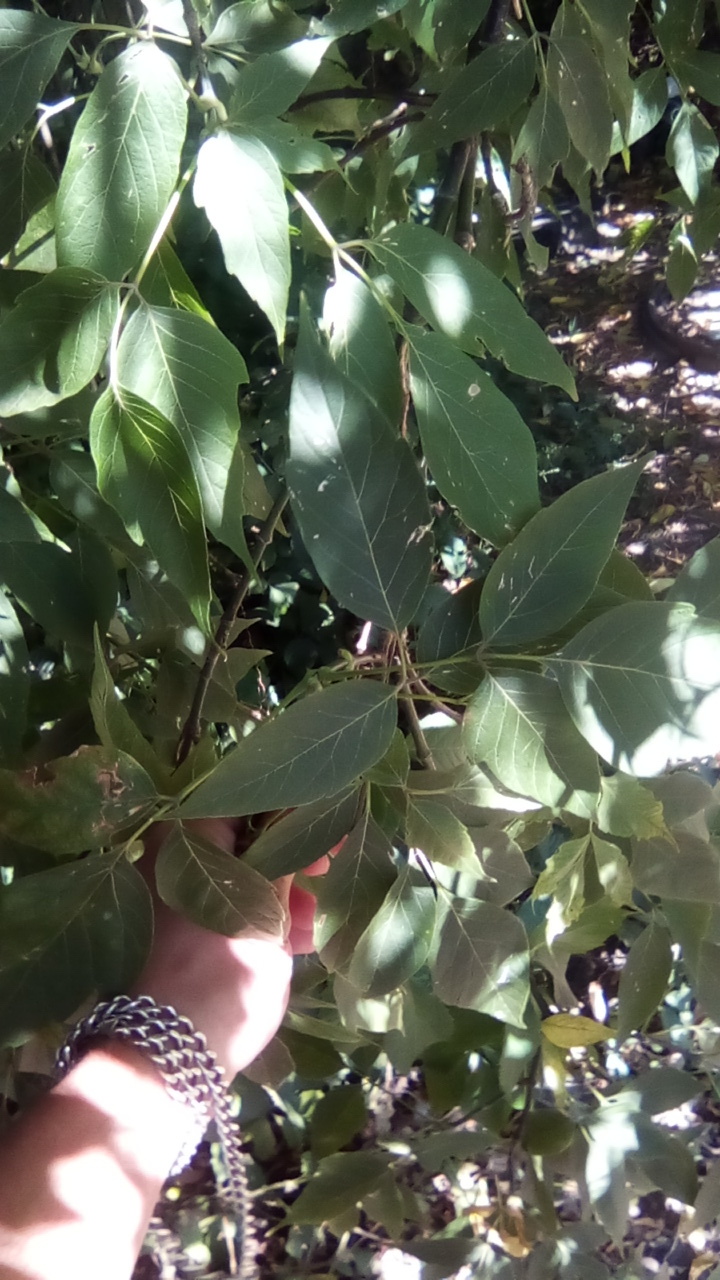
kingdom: Plantae
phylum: Tracheophyta
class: Magnoliopsida
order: Sapindales
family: Sapindaceae
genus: Acer
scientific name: Acer negundo
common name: Ashleaf maple
